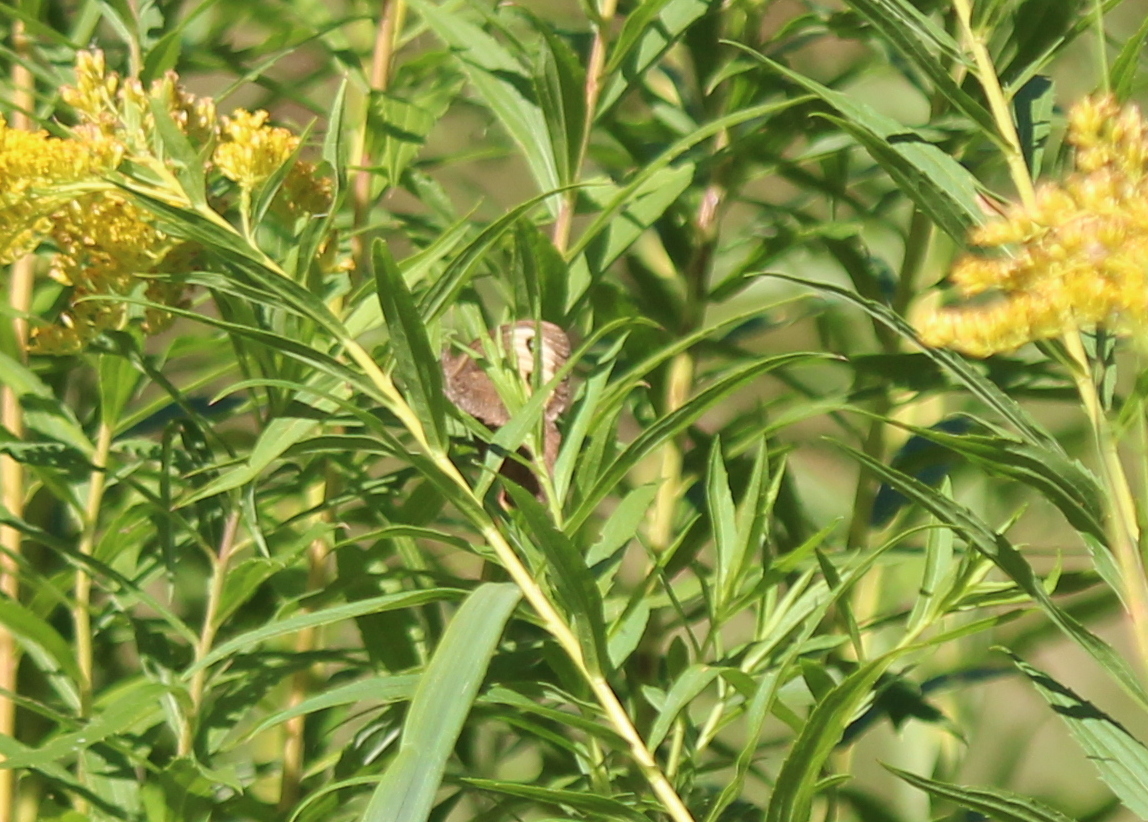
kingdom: Animalia
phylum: Arthropoda
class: Insecta
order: Lepidoptera
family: Nymphalidae
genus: Cercyonis
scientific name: Cercyonis pegala
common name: Common wood-nymph
